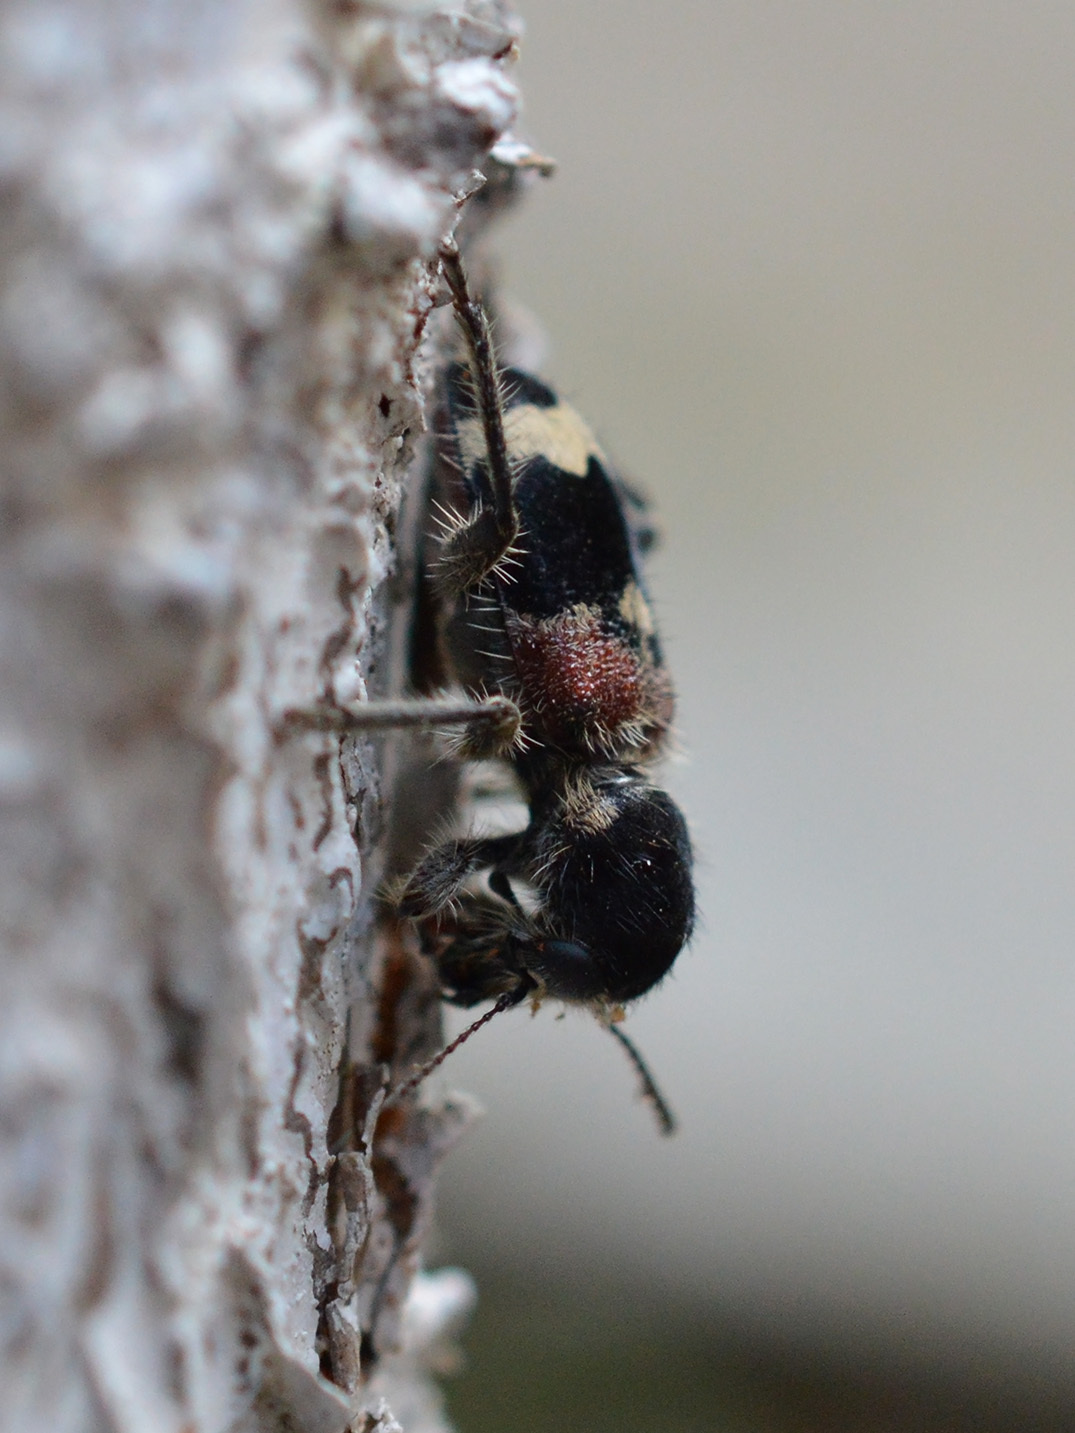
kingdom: Animalia
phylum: Arthropoda
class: Insecta
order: Coleoptera
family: Cleridae
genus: Clerus
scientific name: Clerus mutillarius
